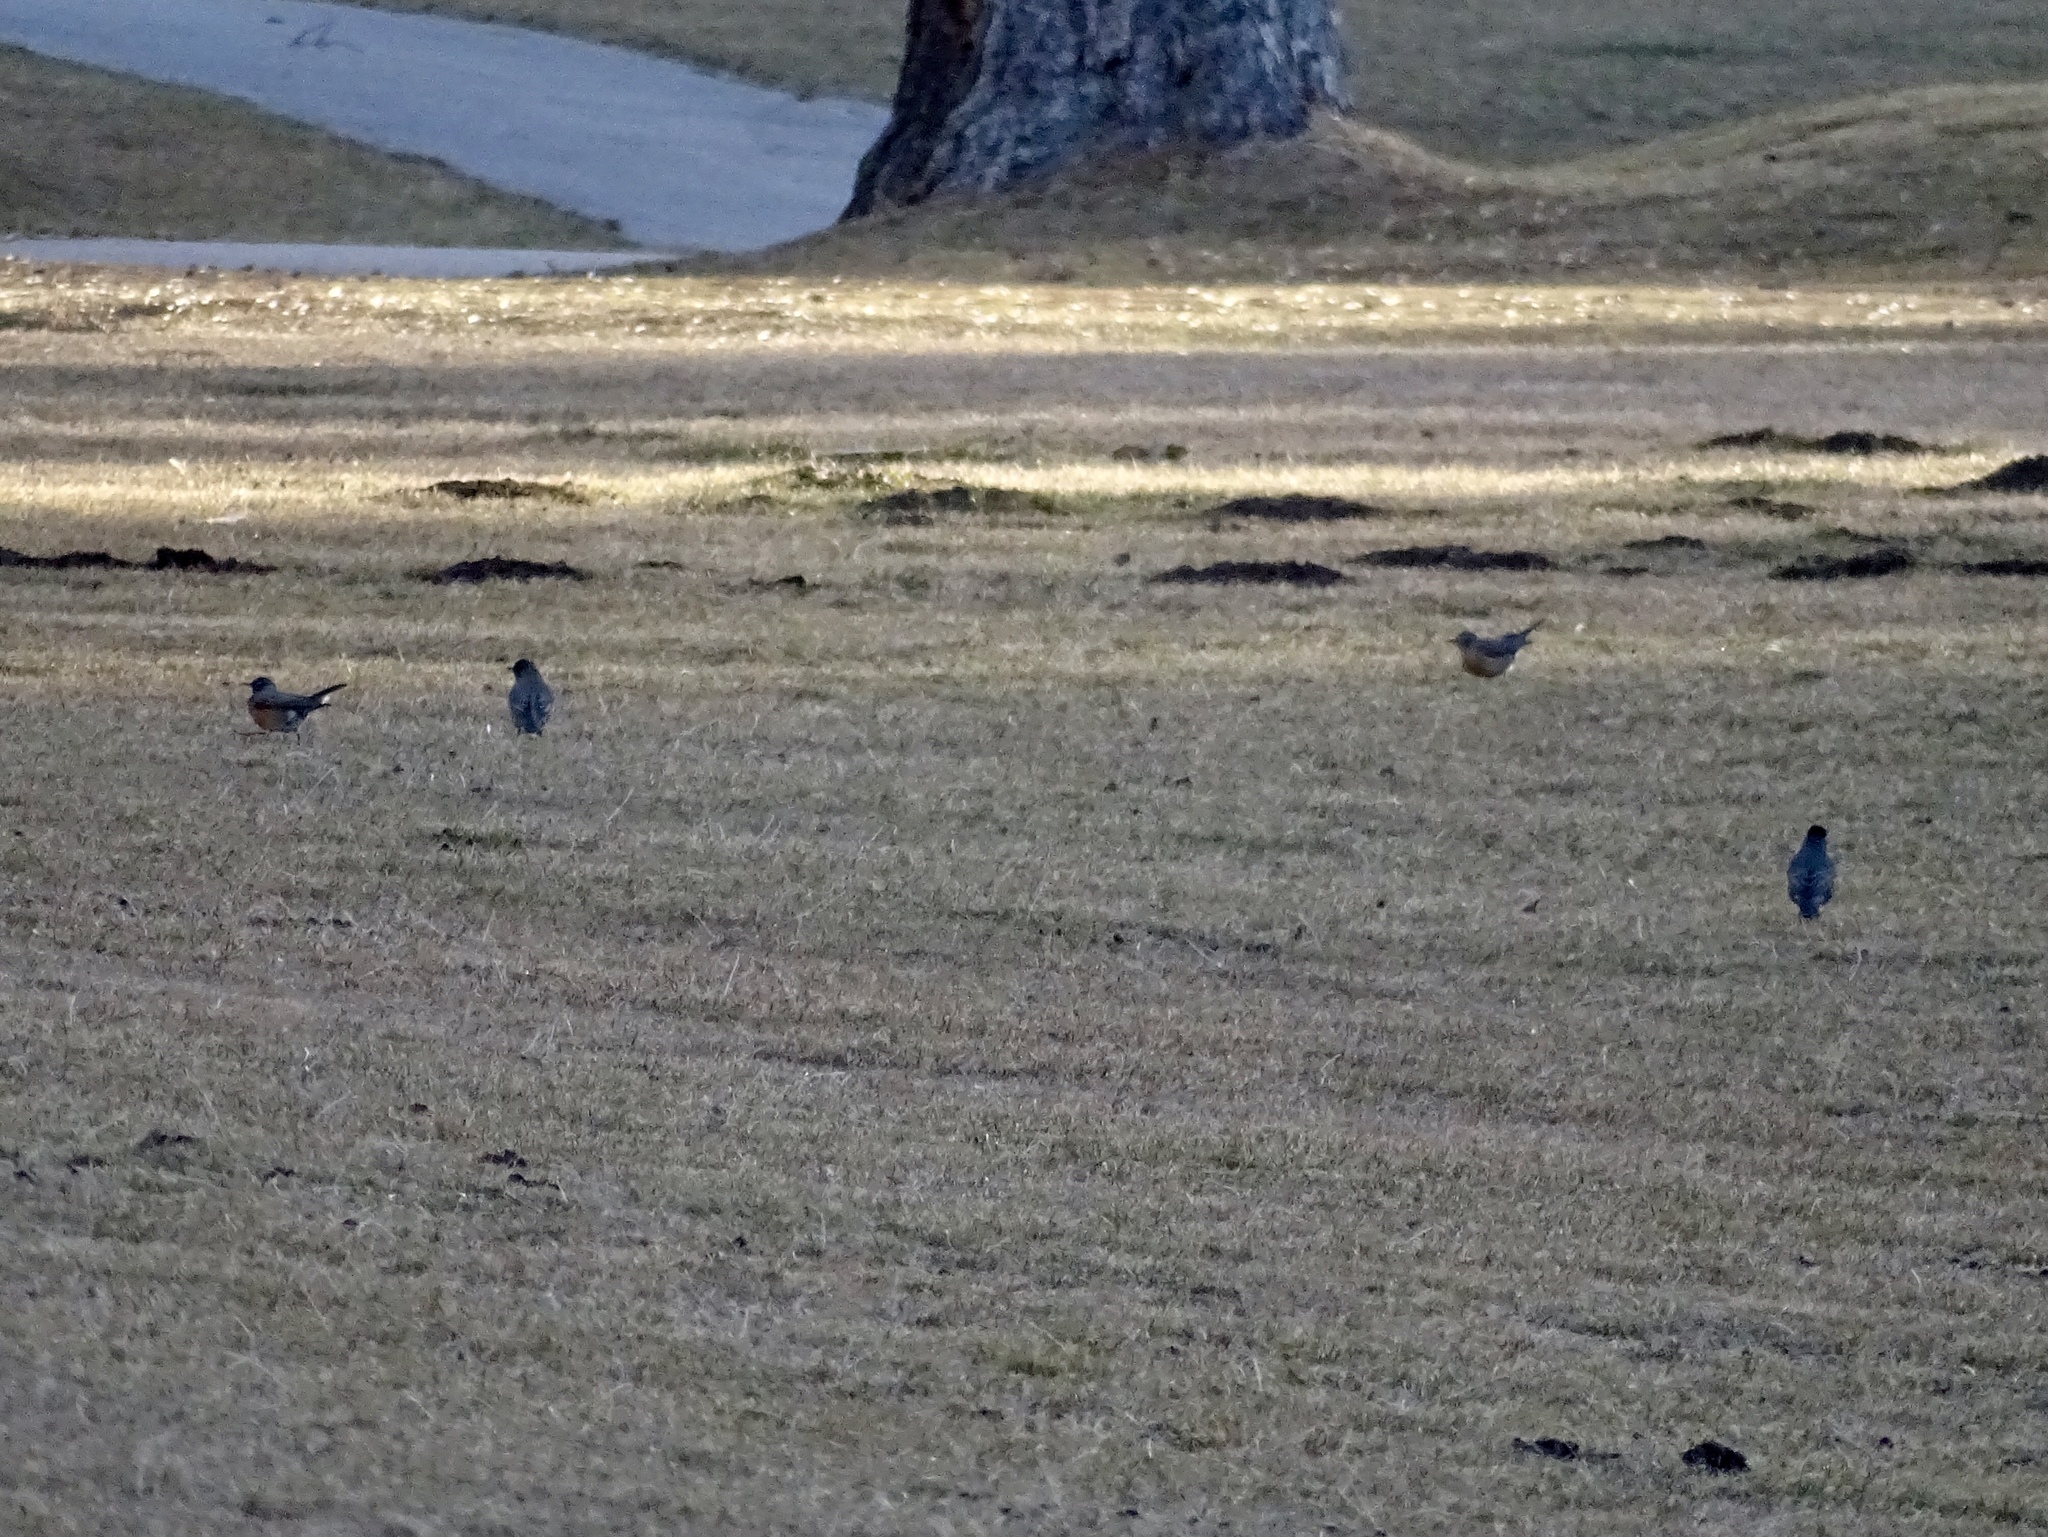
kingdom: Animalia
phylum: Chordata
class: Aves
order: Passeriformes
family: Turdidae
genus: Turdus
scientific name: Turdus migratorius
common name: American robin
